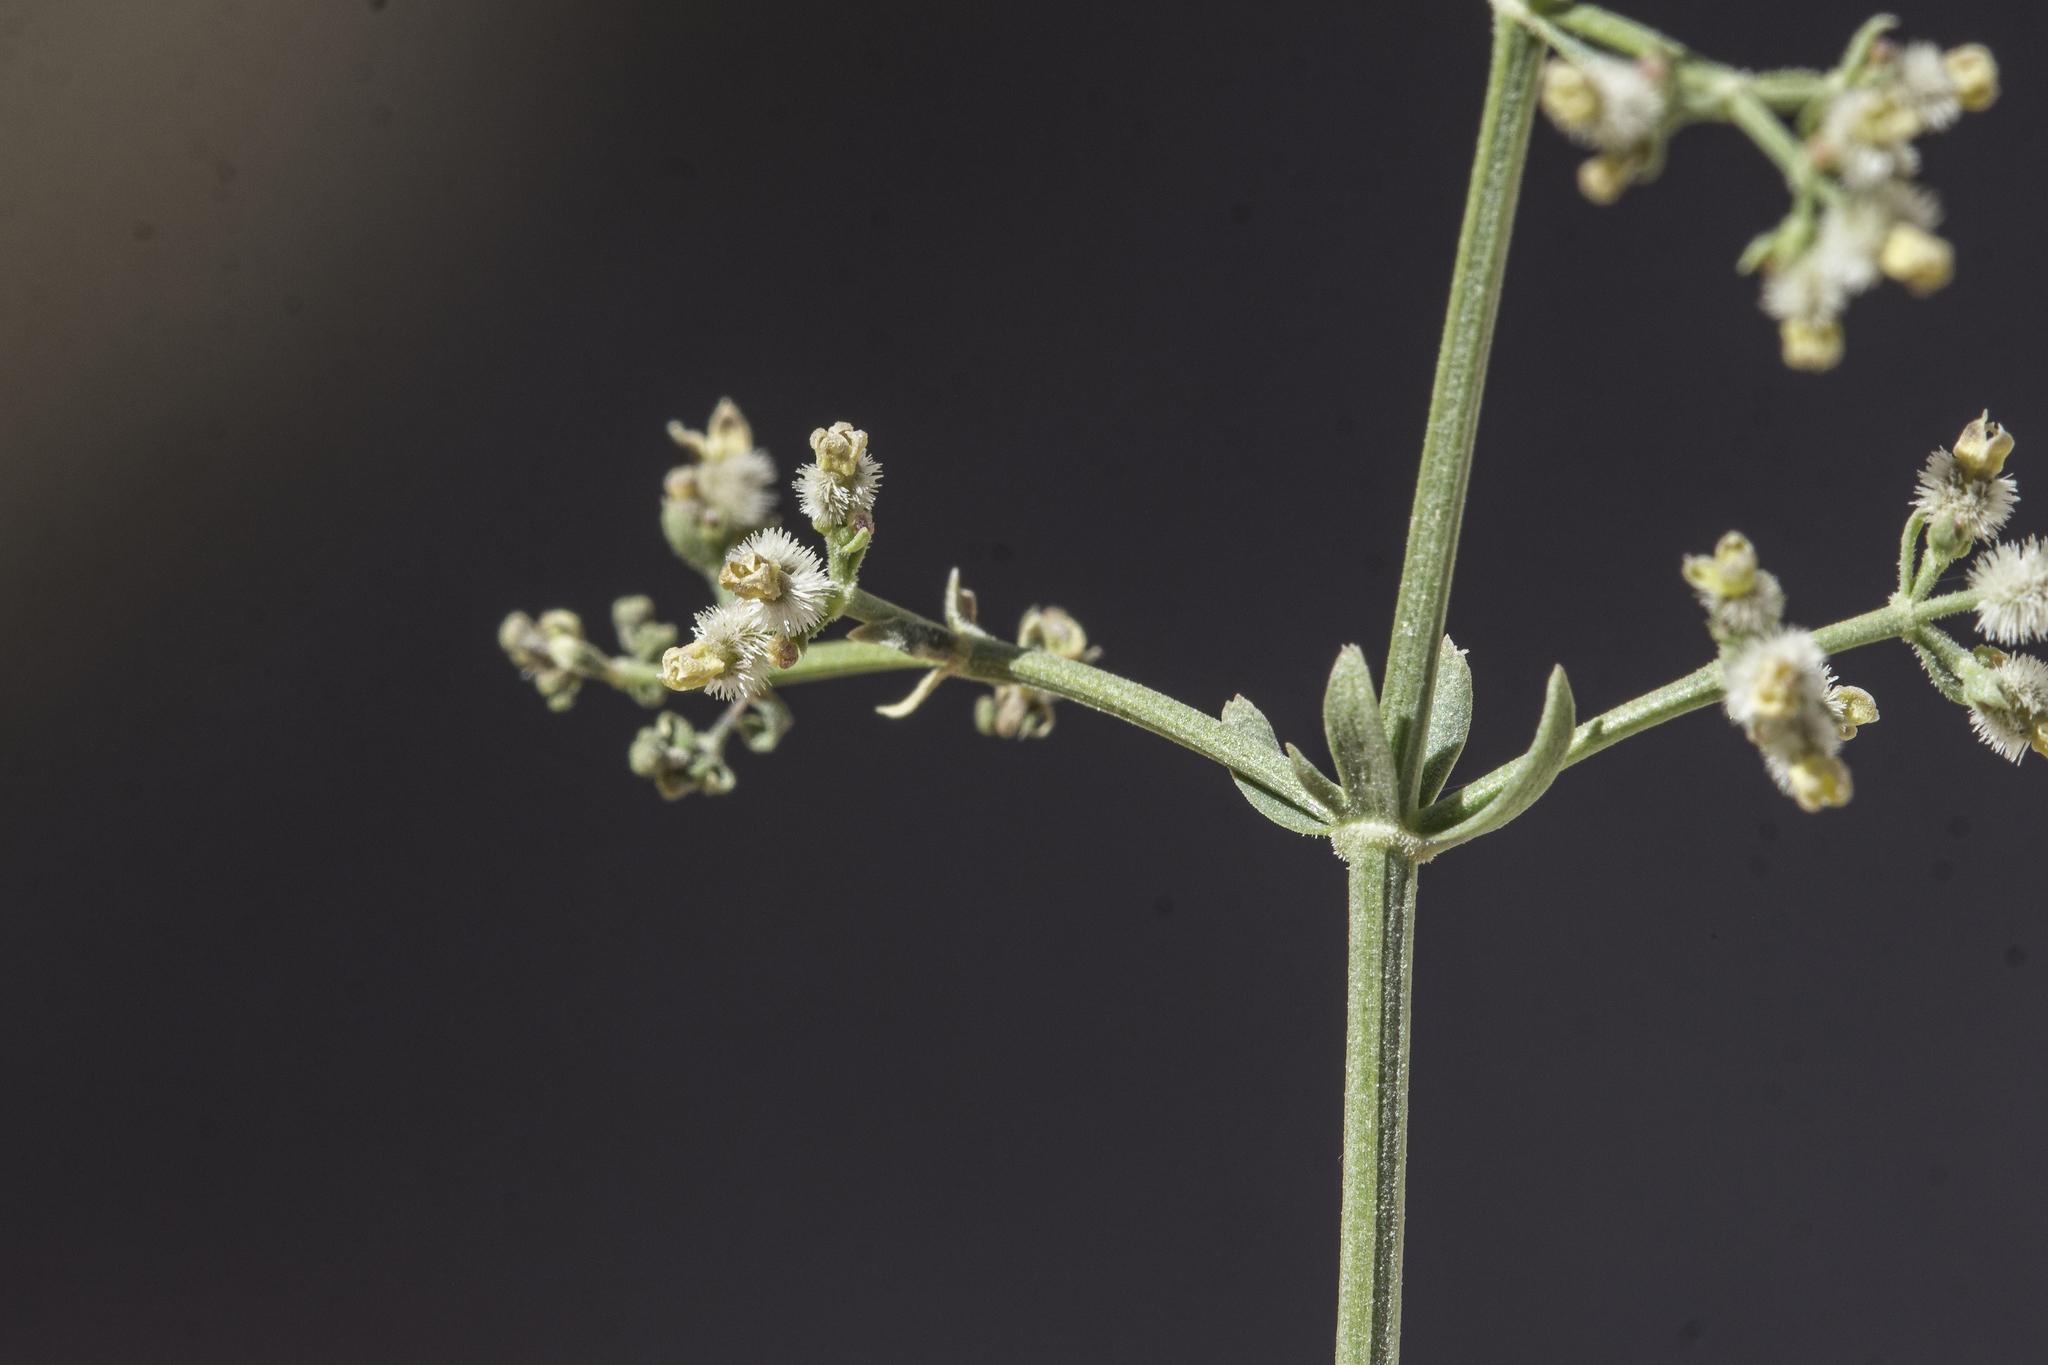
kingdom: Plantae
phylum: Tracheophyta
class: Magnoliopsida
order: Gentianales
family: Rubiaceae
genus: Galium
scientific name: Galium angustifolium
